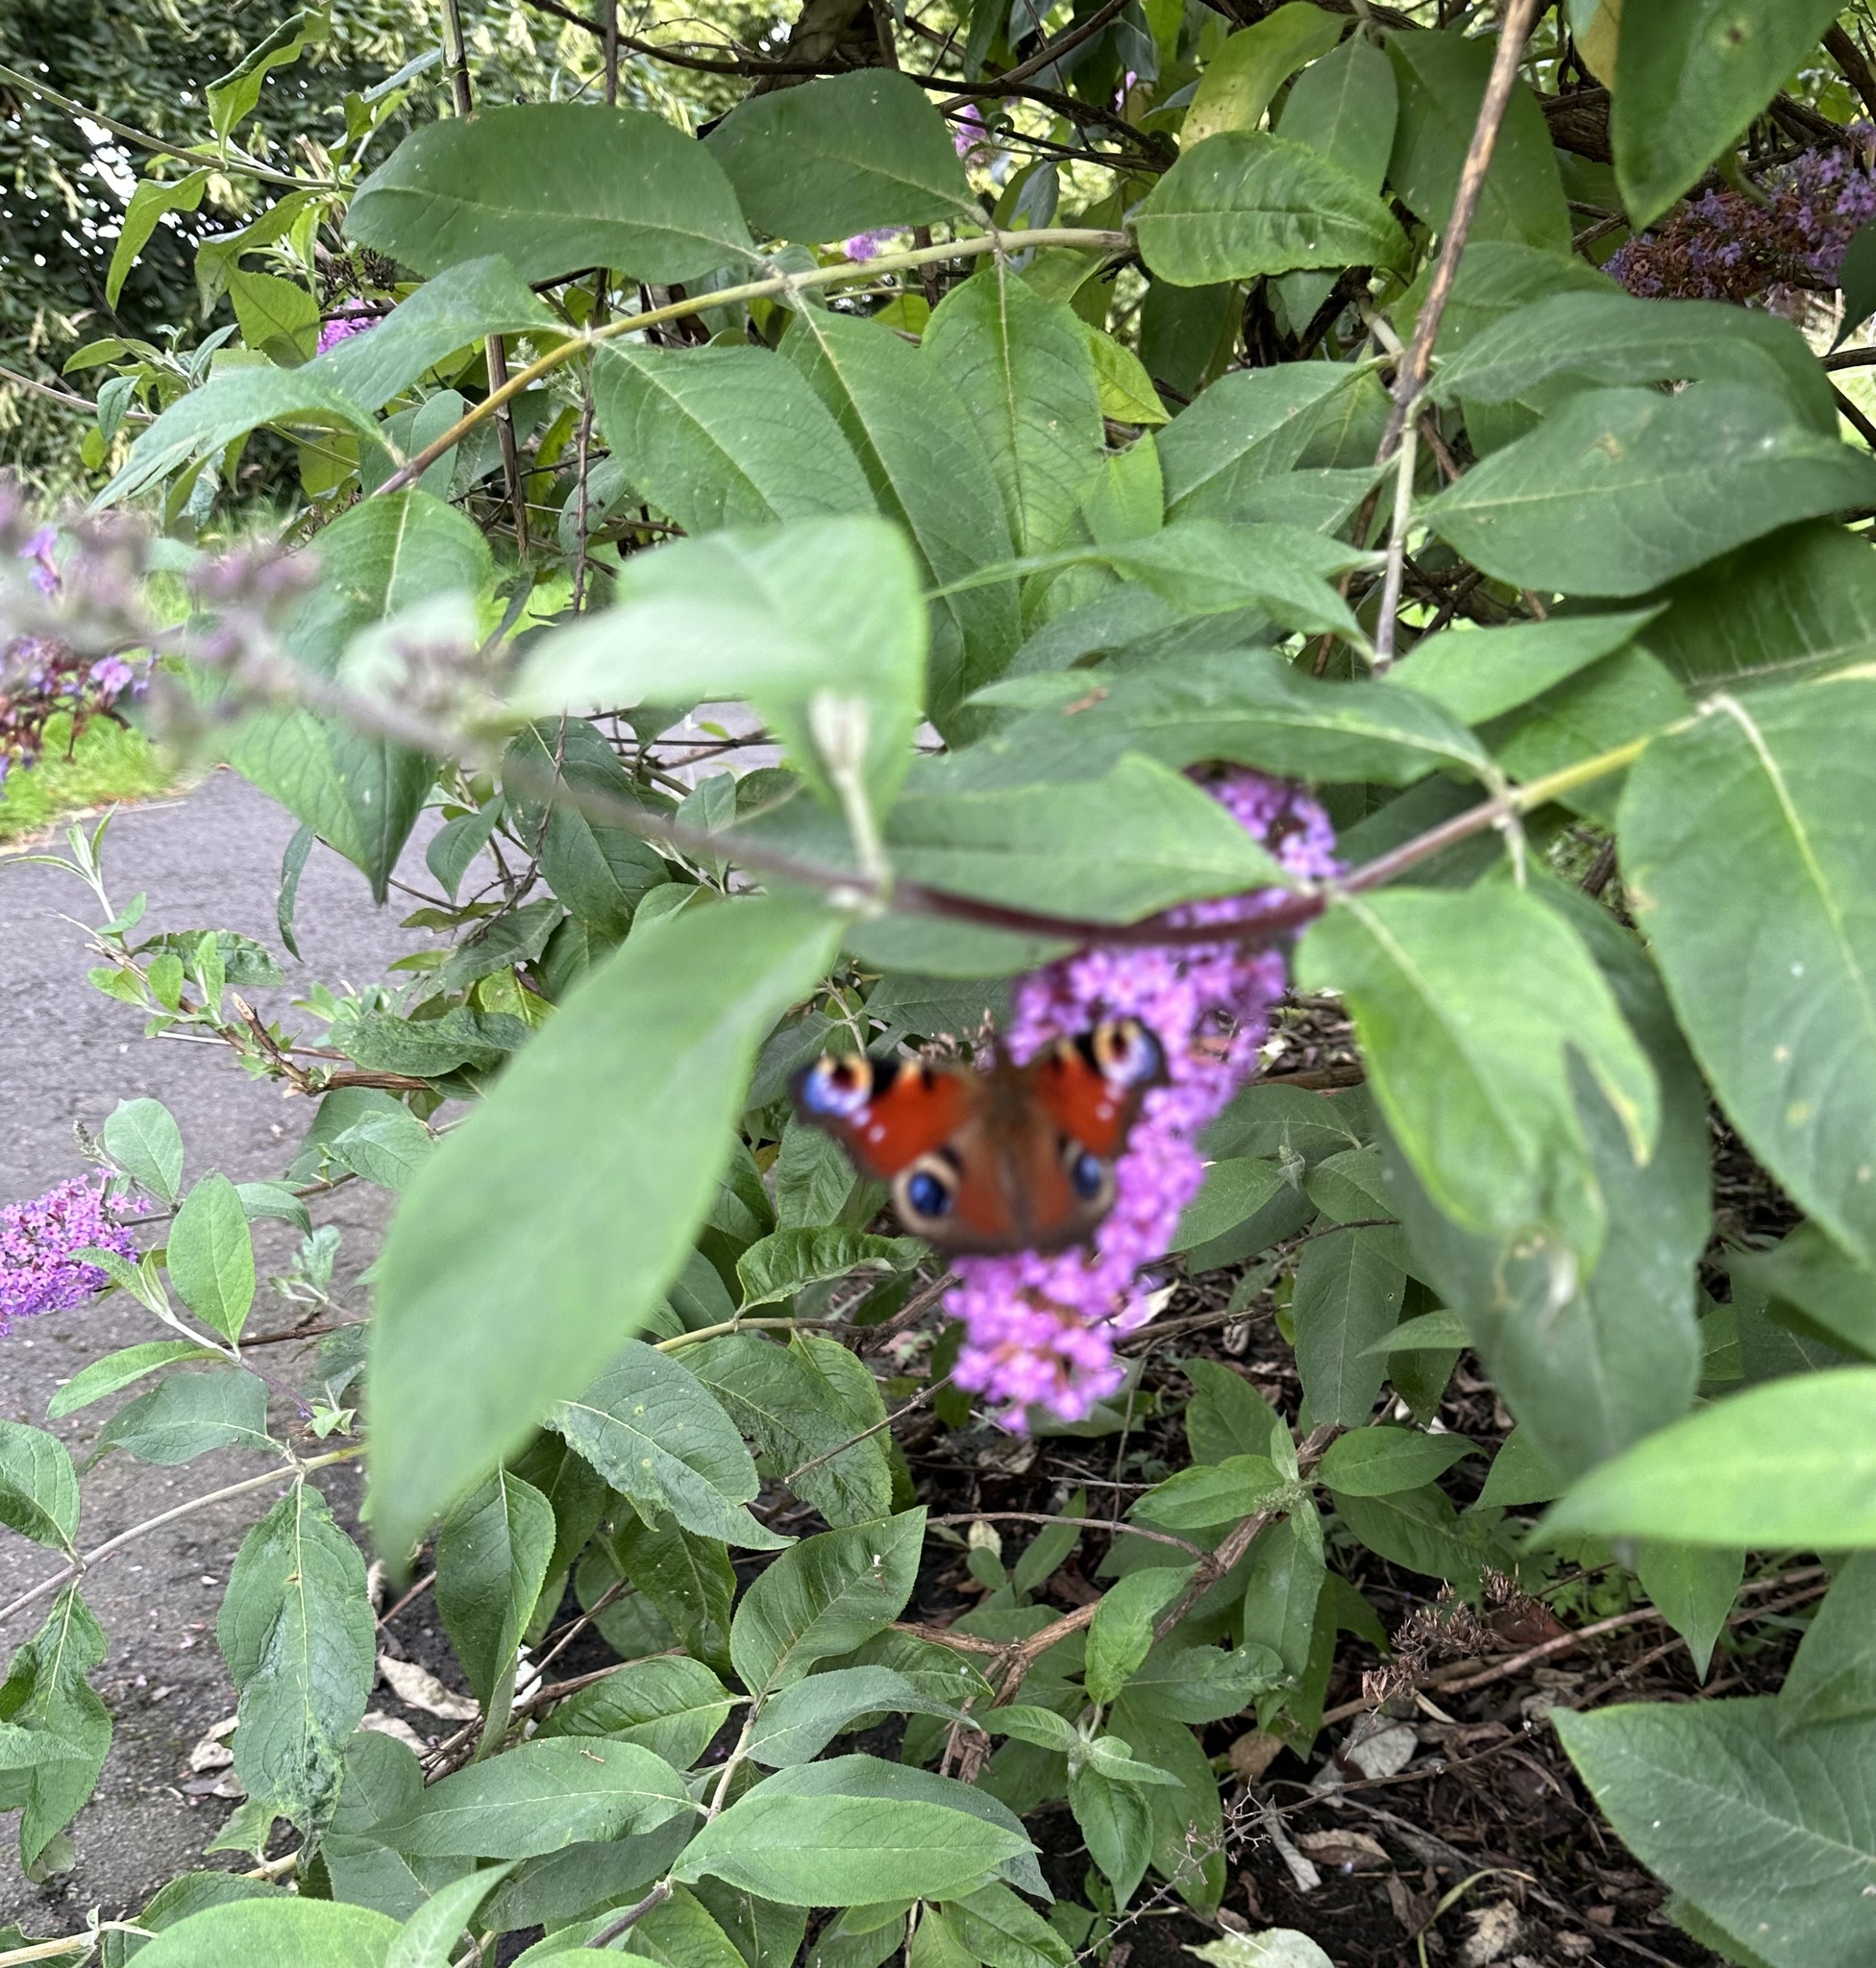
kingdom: Animalia
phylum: Arthropoda
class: Insecta
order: Lepidoptera
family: Nymphalidae
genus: Aglais
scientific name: Aglais io
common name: Peacock
